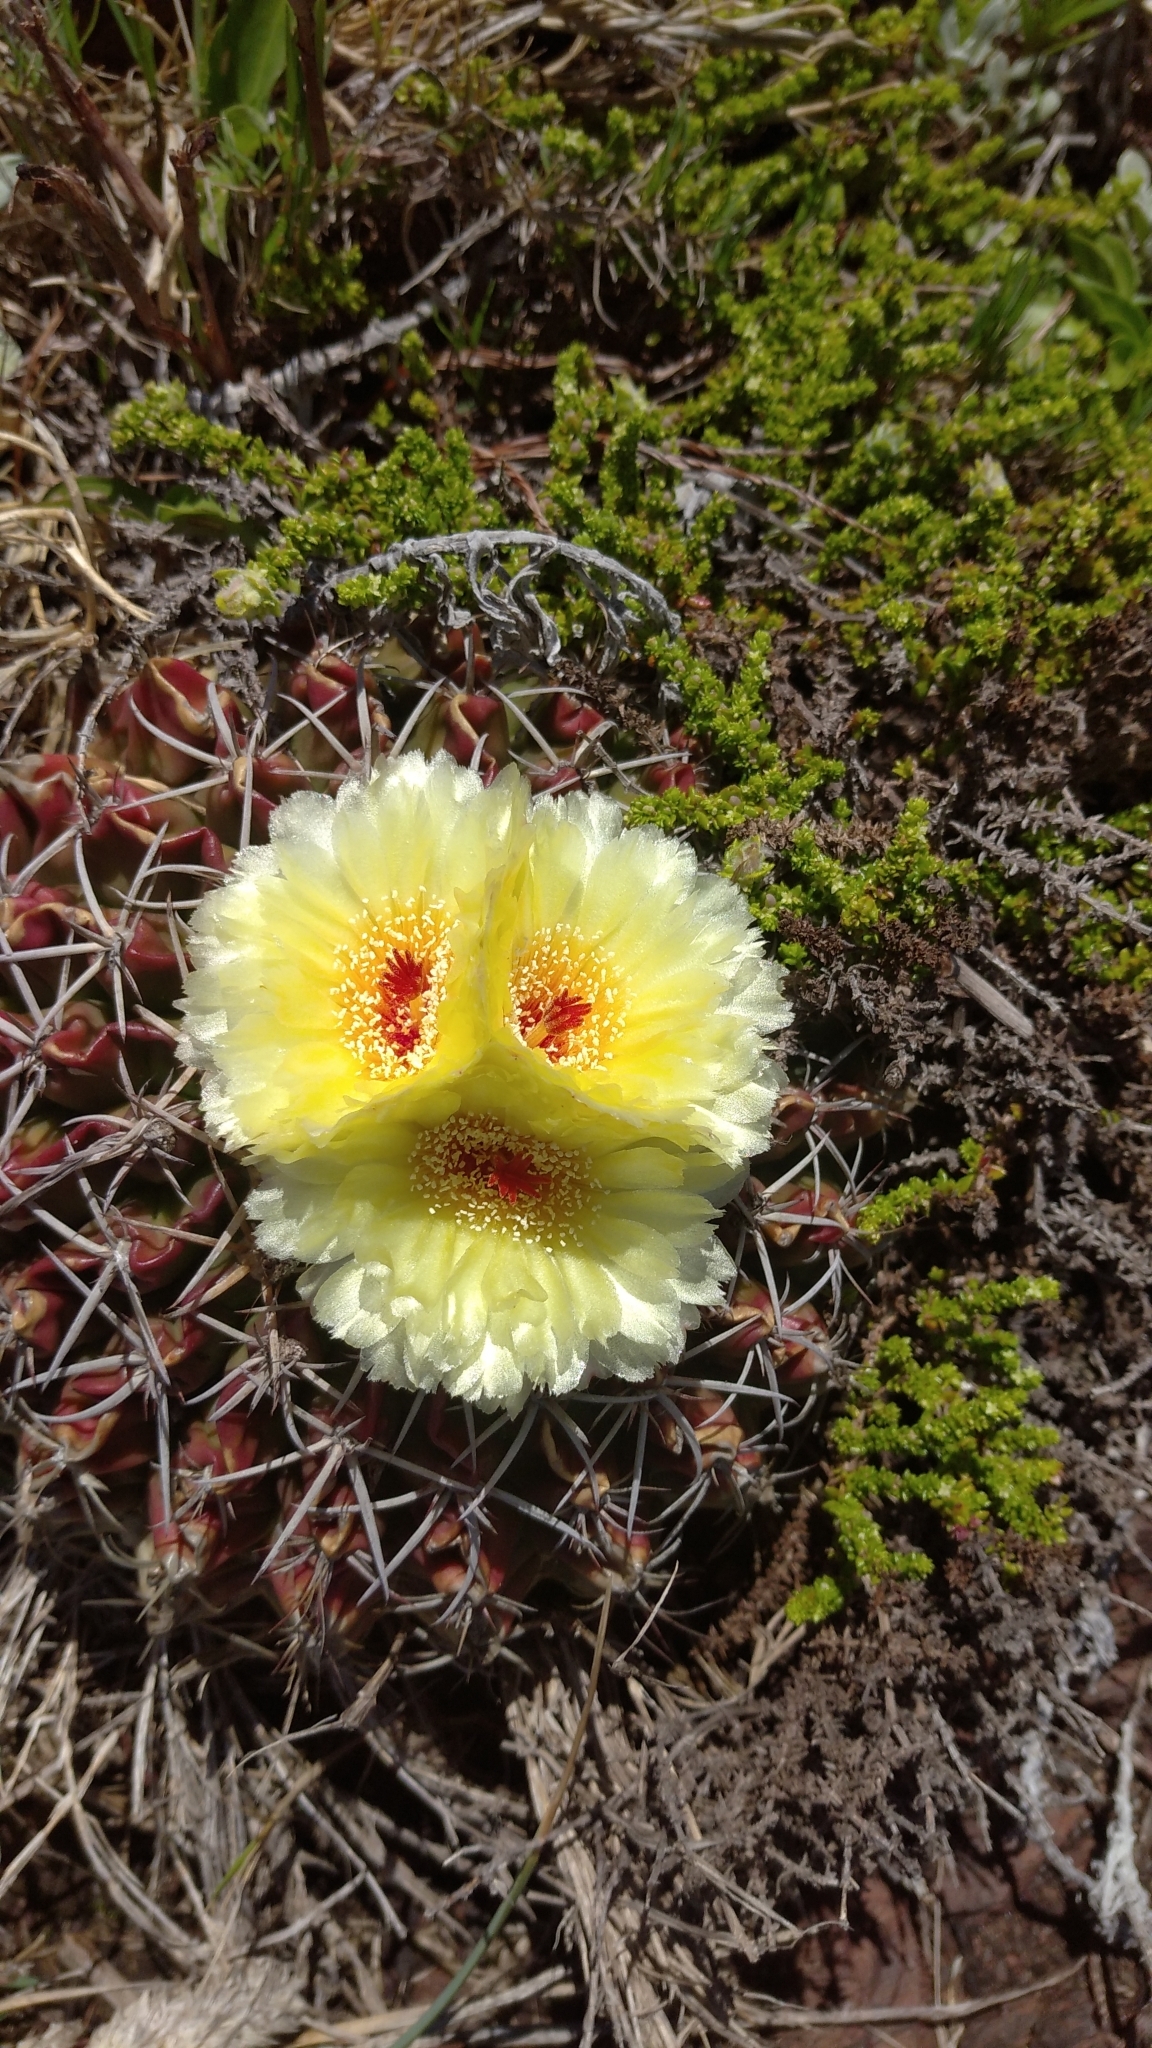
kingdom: Plantae
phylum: Tracheophyta
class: Magnoliopsida
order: Caryophyllales
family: Cactaceae
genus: Parodia
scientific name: Parodia erinacea
